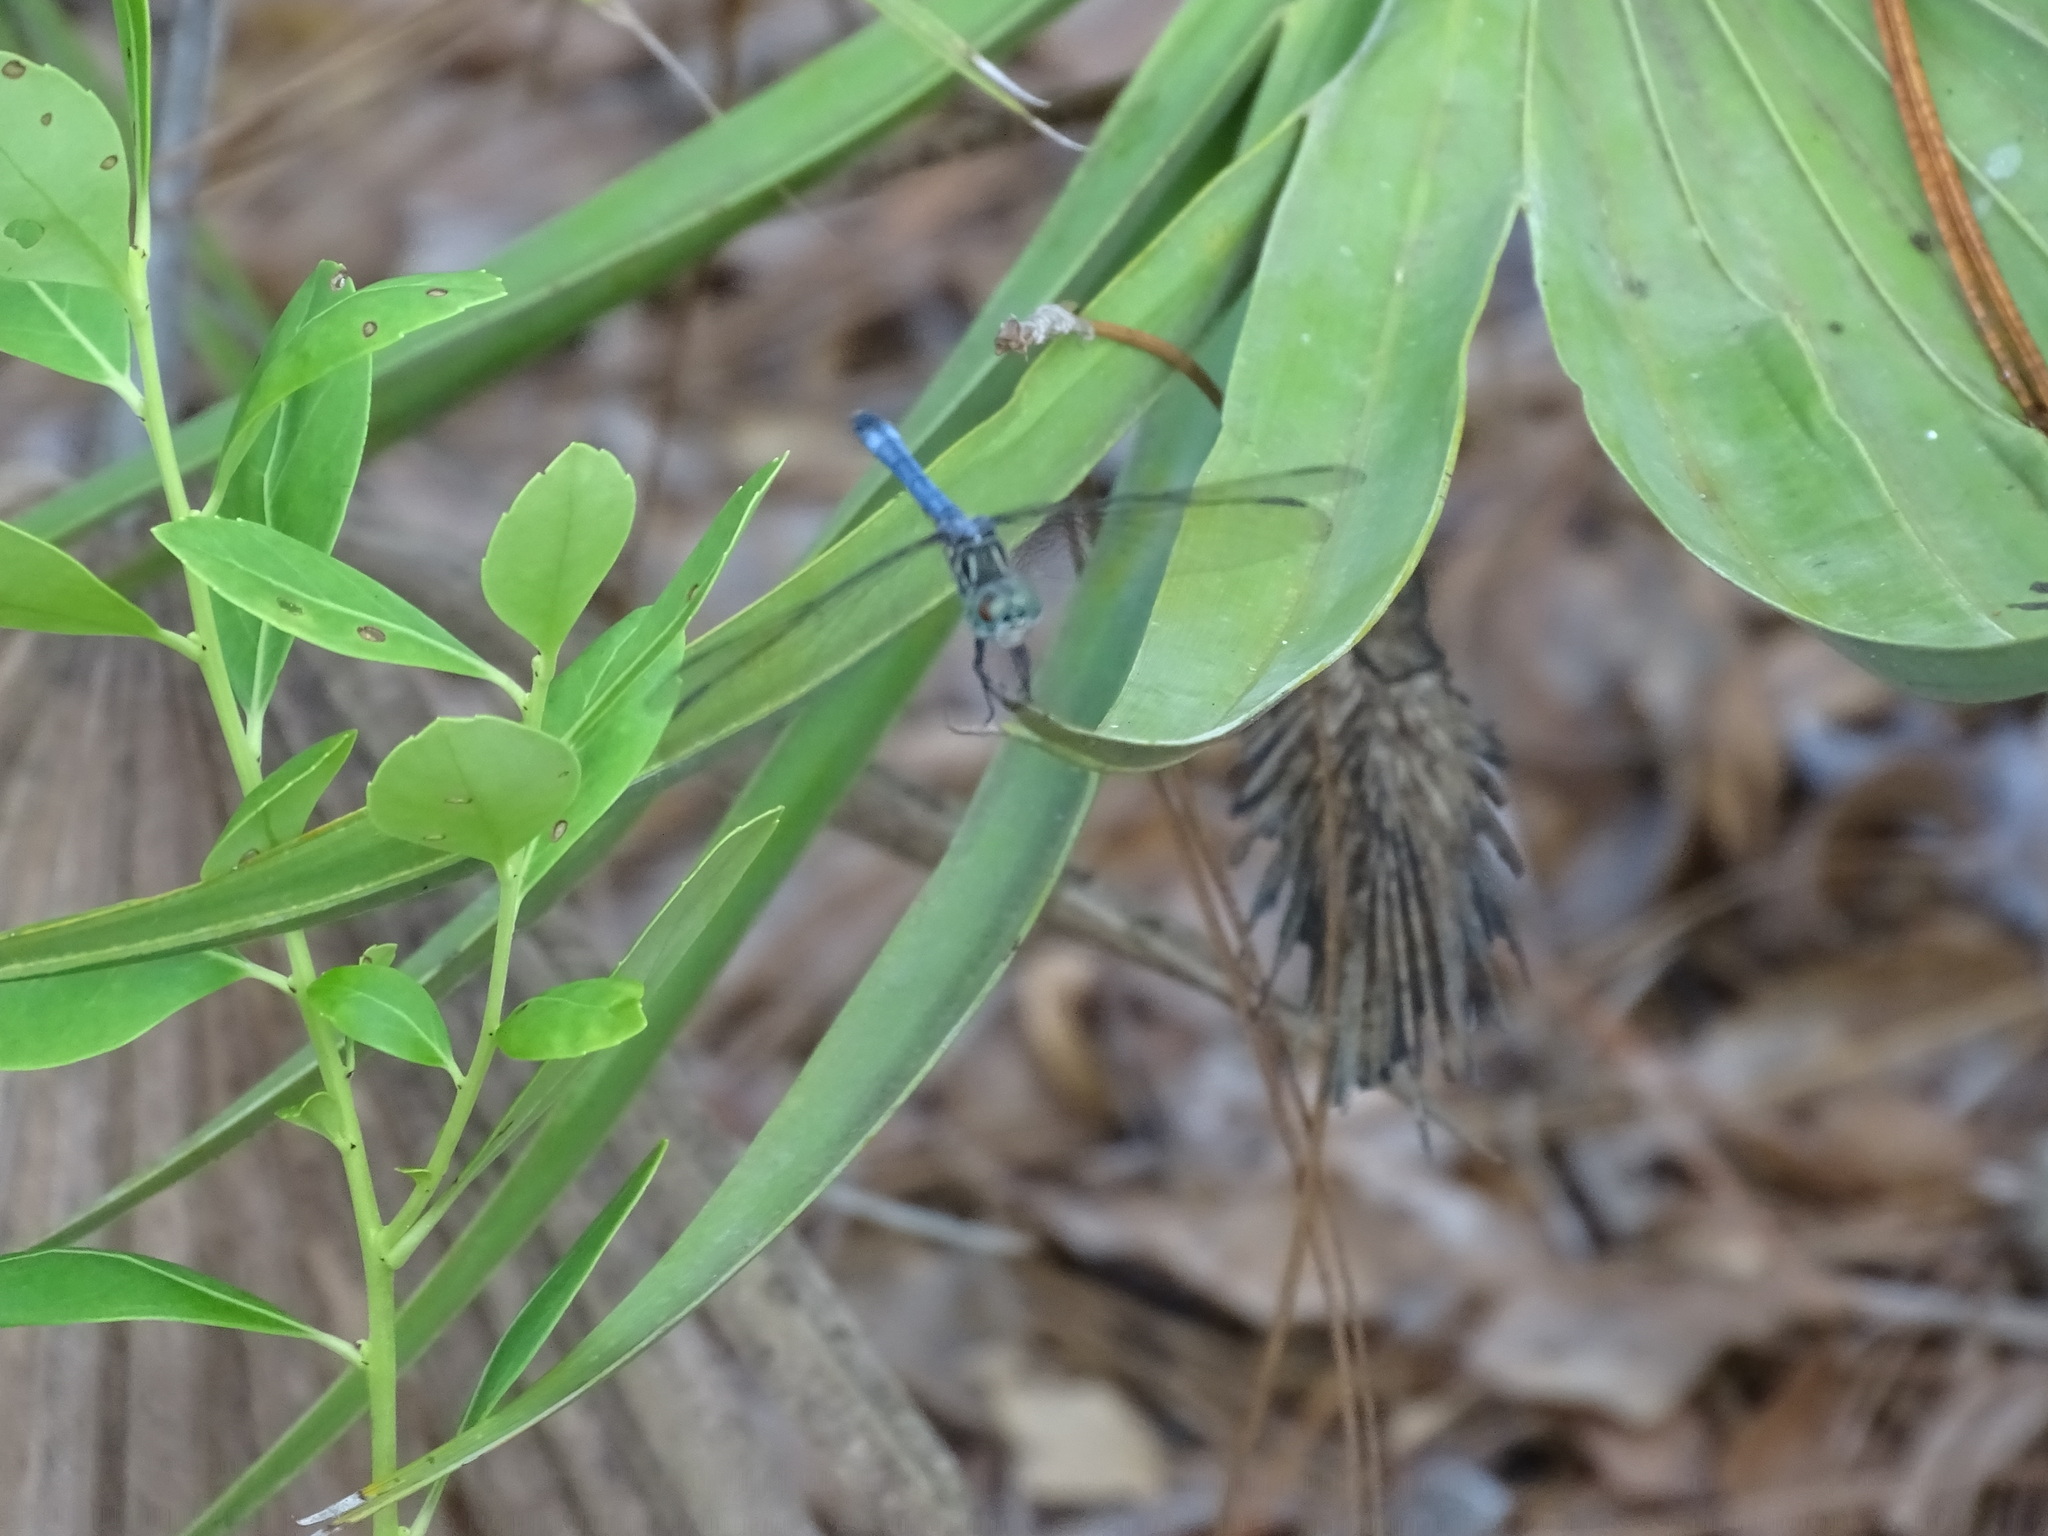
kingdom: Animalia
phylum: Arthropoda
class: Insecta
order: Odonata
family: Libellulidae
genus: Pachydiplax
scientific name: Pachydiplax longipennis
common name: Blue dasher
